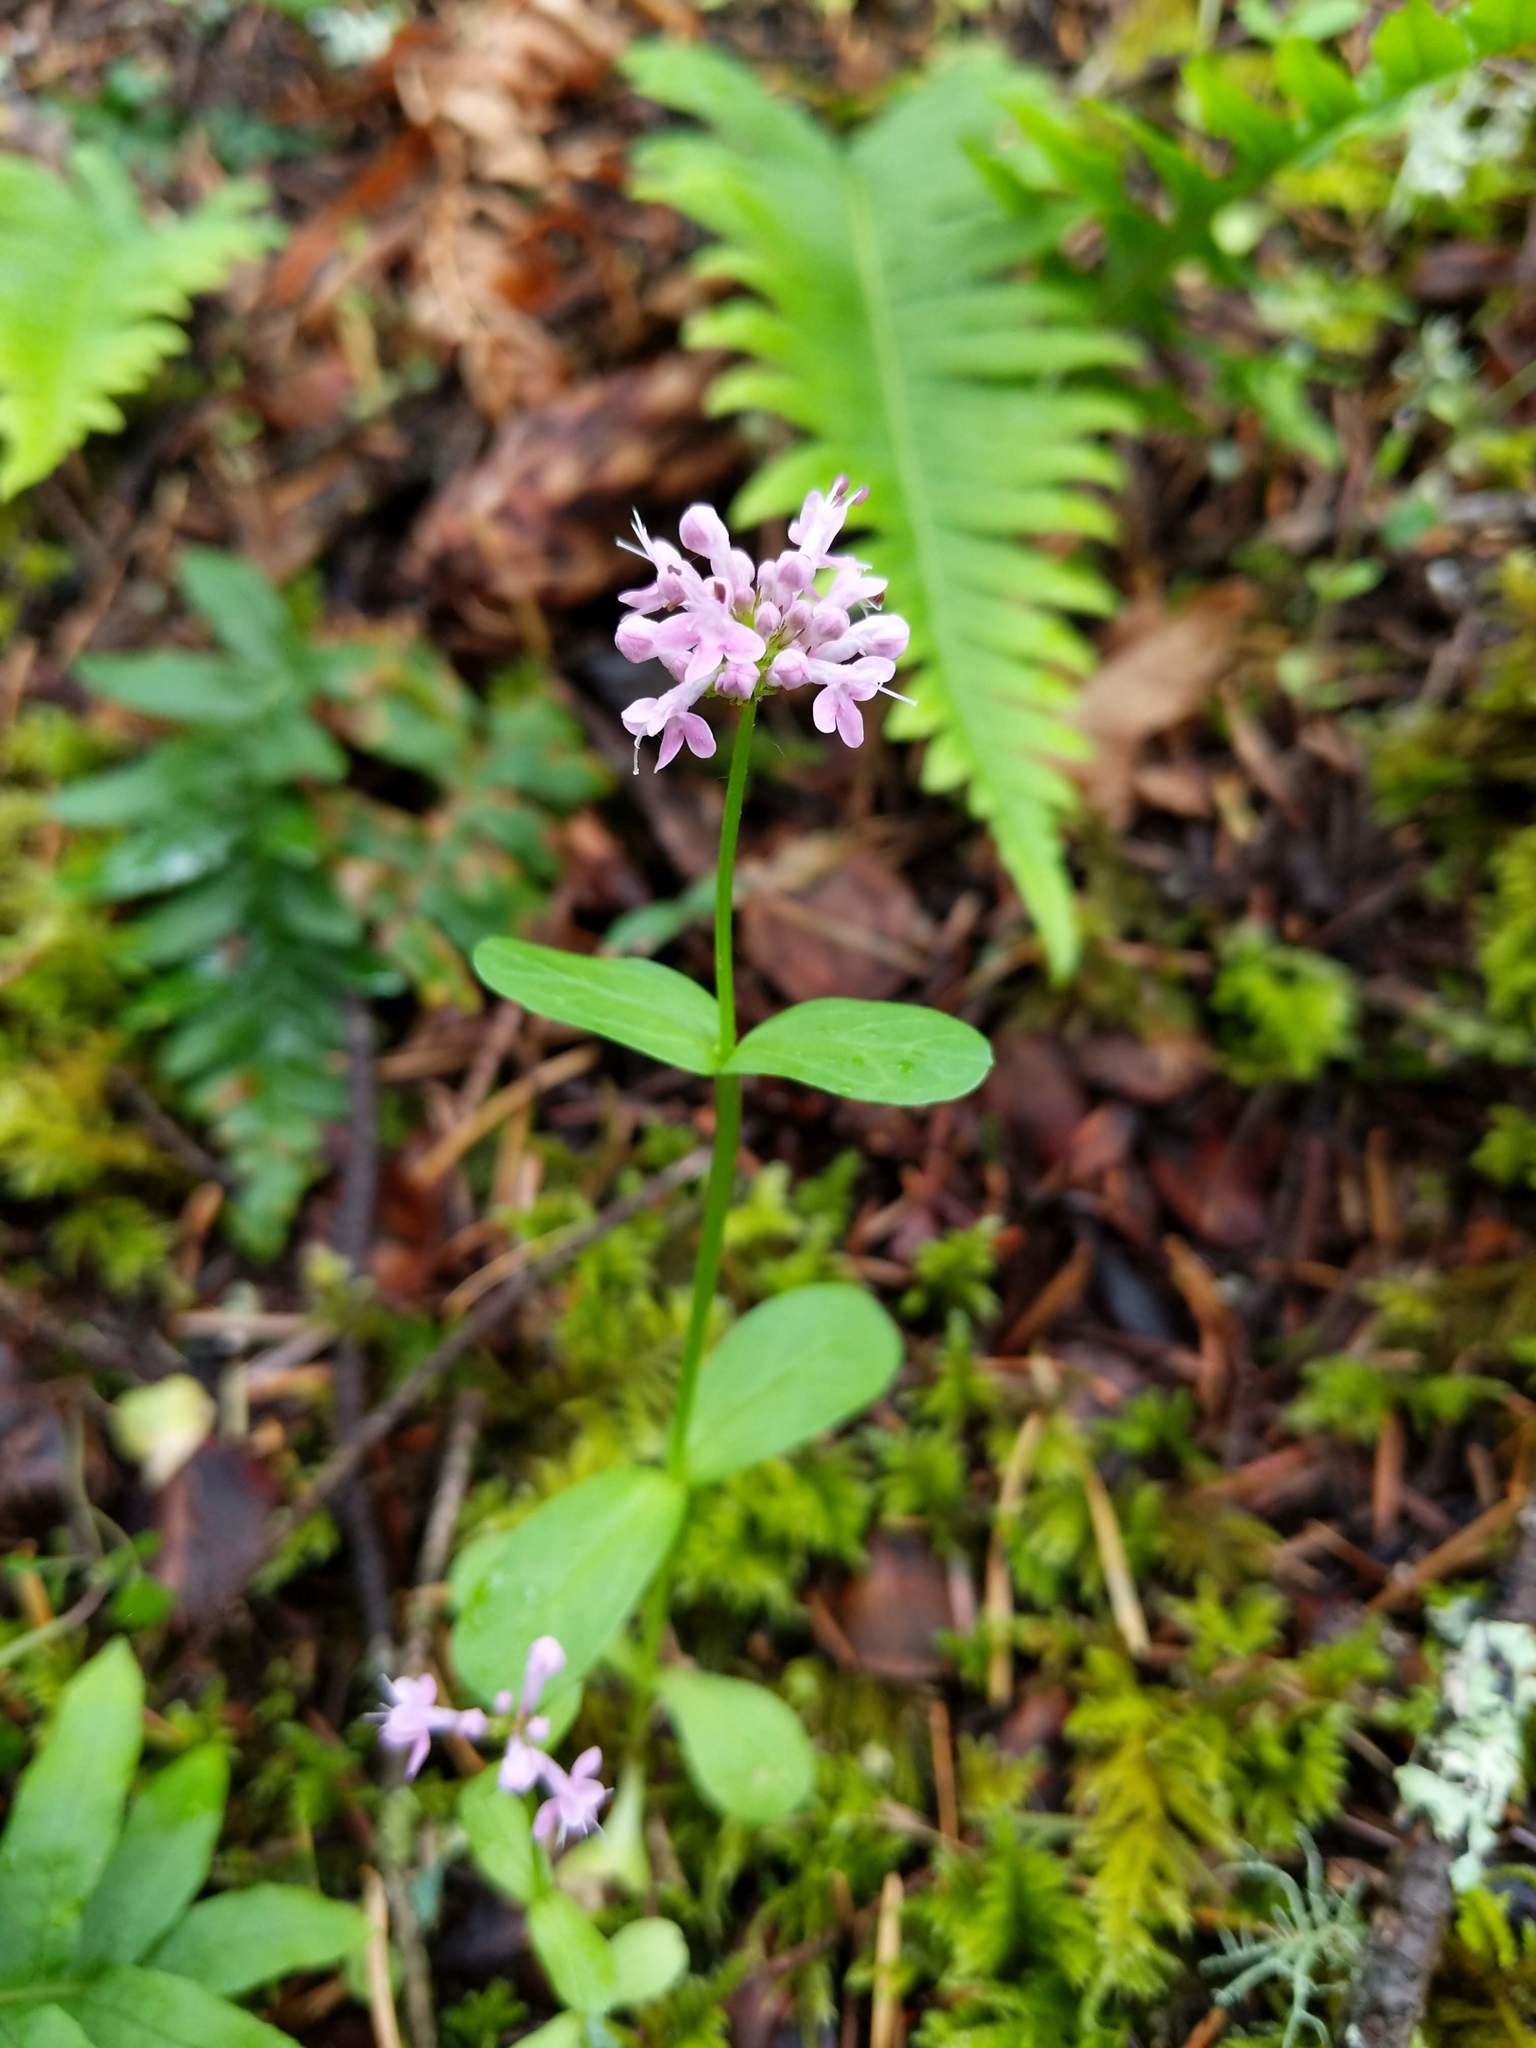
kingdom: Plantae
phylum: Tracheophyta
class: Magnoliopsida
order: Dipsacales
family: Caprifoliaceae
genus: Plectritis
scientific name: Plectritis congesta
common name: Pink plectritis
